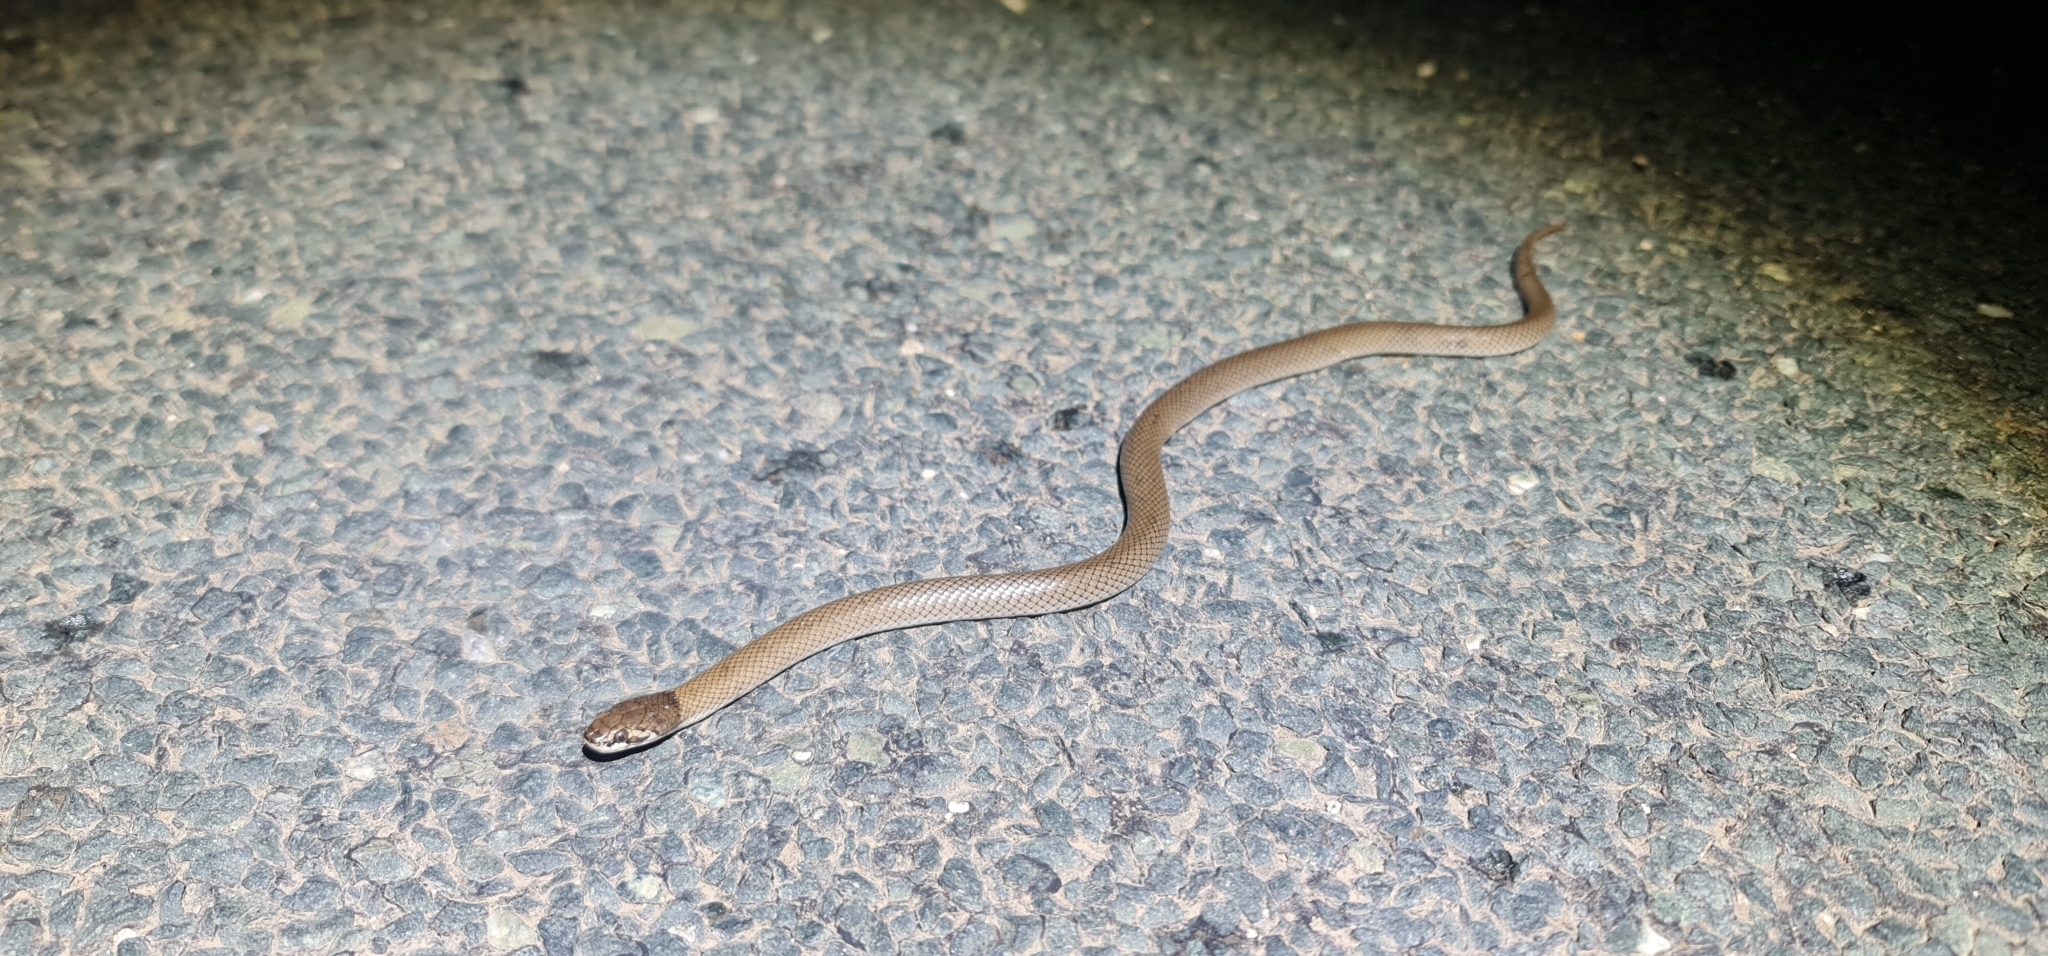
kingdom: Animalia
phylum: Chordata
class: Squamata
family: Elapidae
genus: Suta
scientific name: Suta suta
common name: Curl snake
